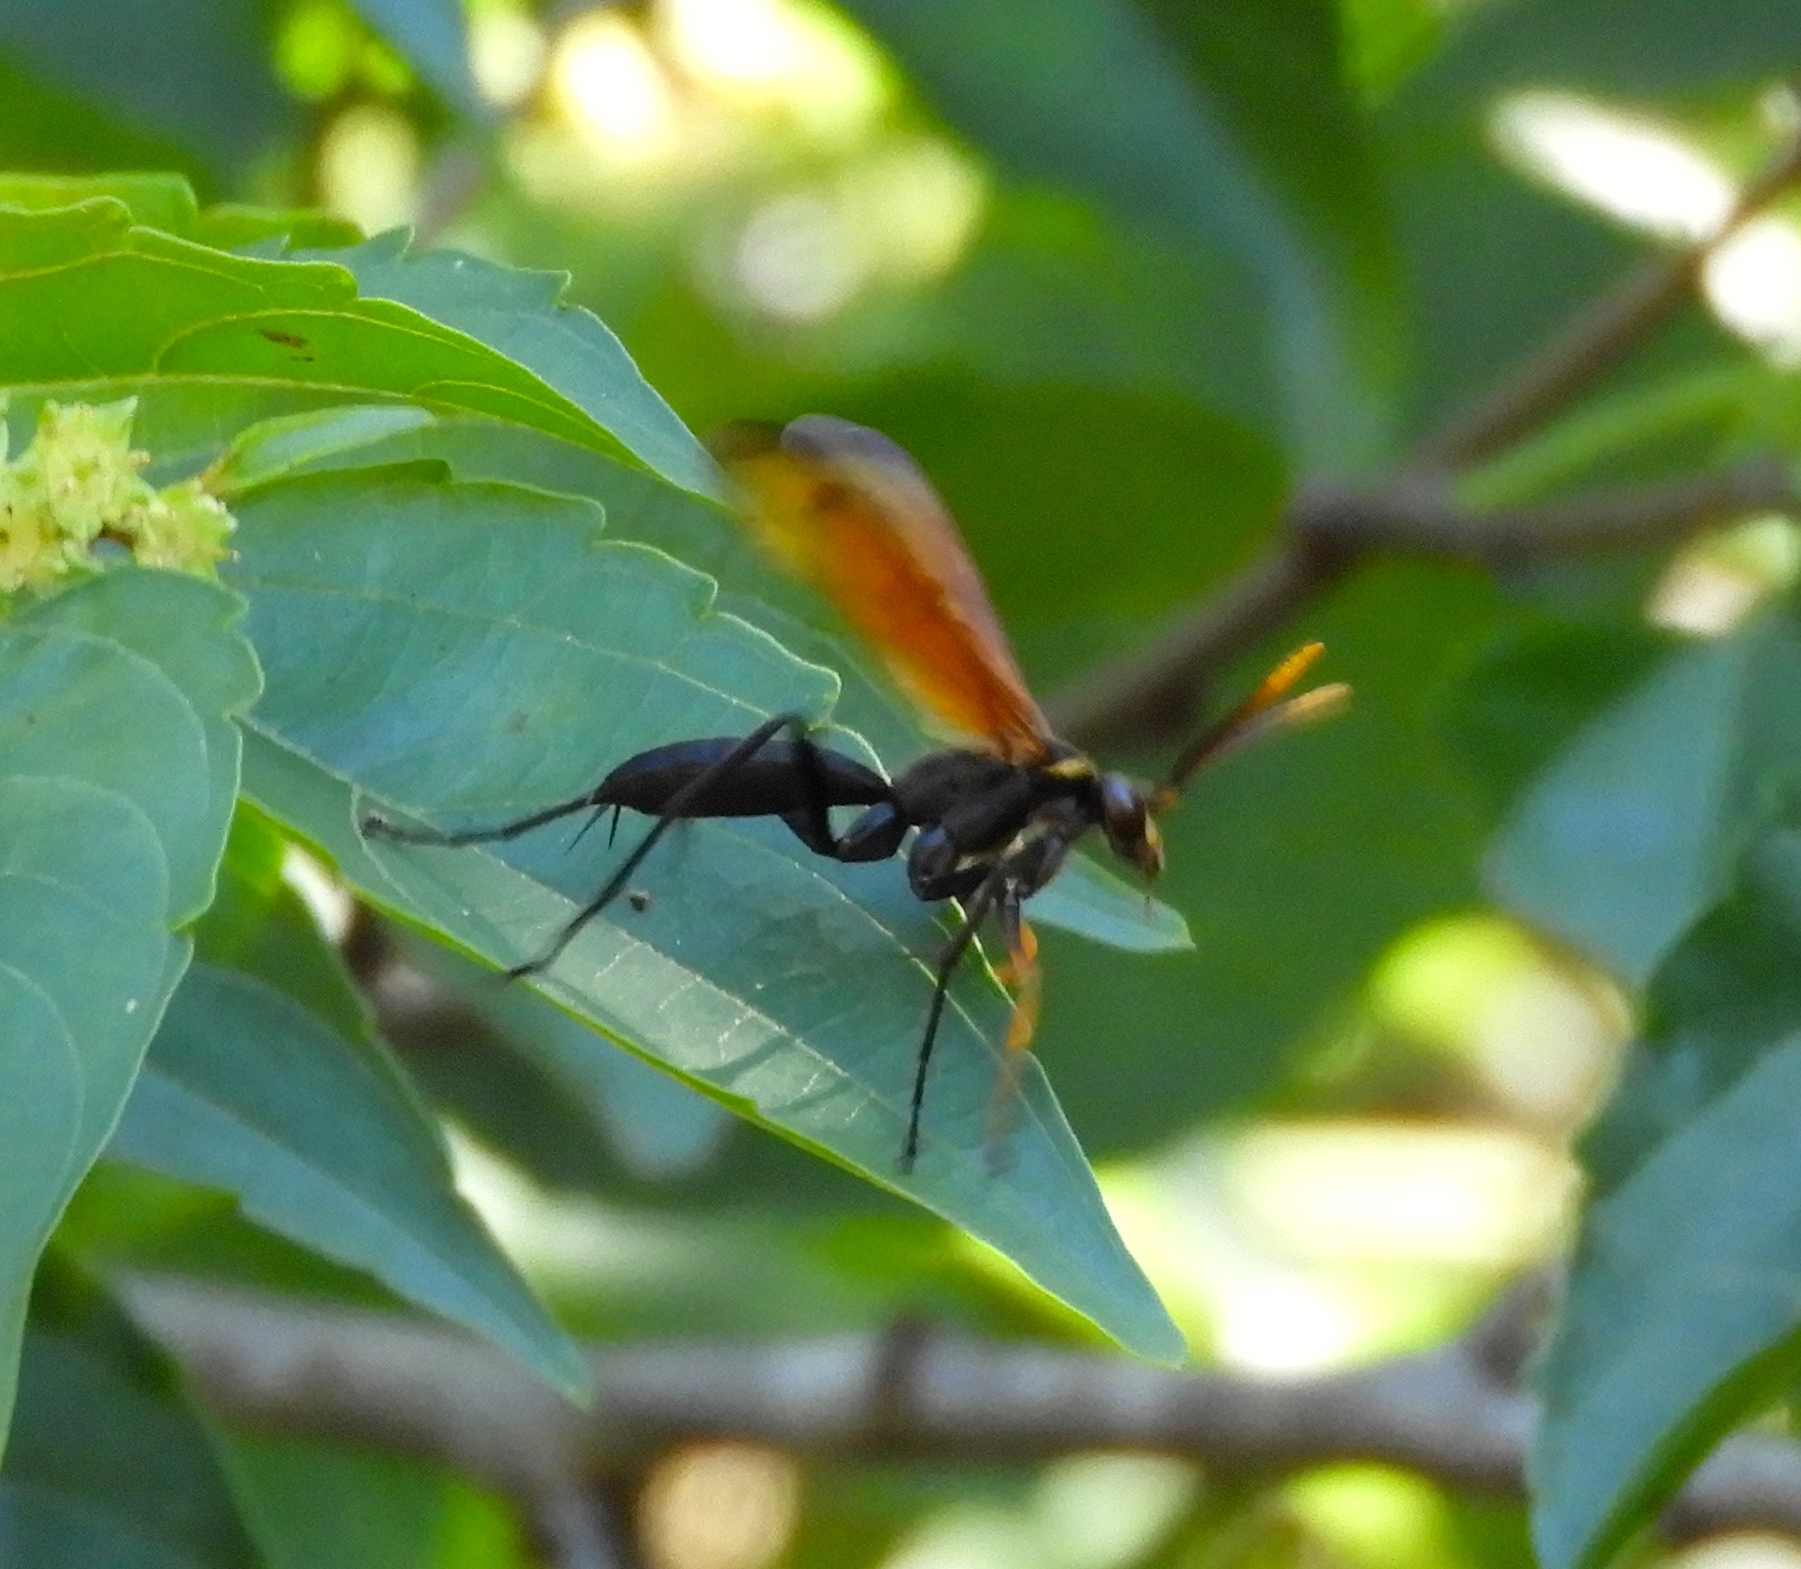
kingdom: Animalia
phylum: Arthropoda
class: Insecta
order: Hymenoptera
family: Pompilidae
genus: Hemipepsis
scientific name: Hemipepsis
